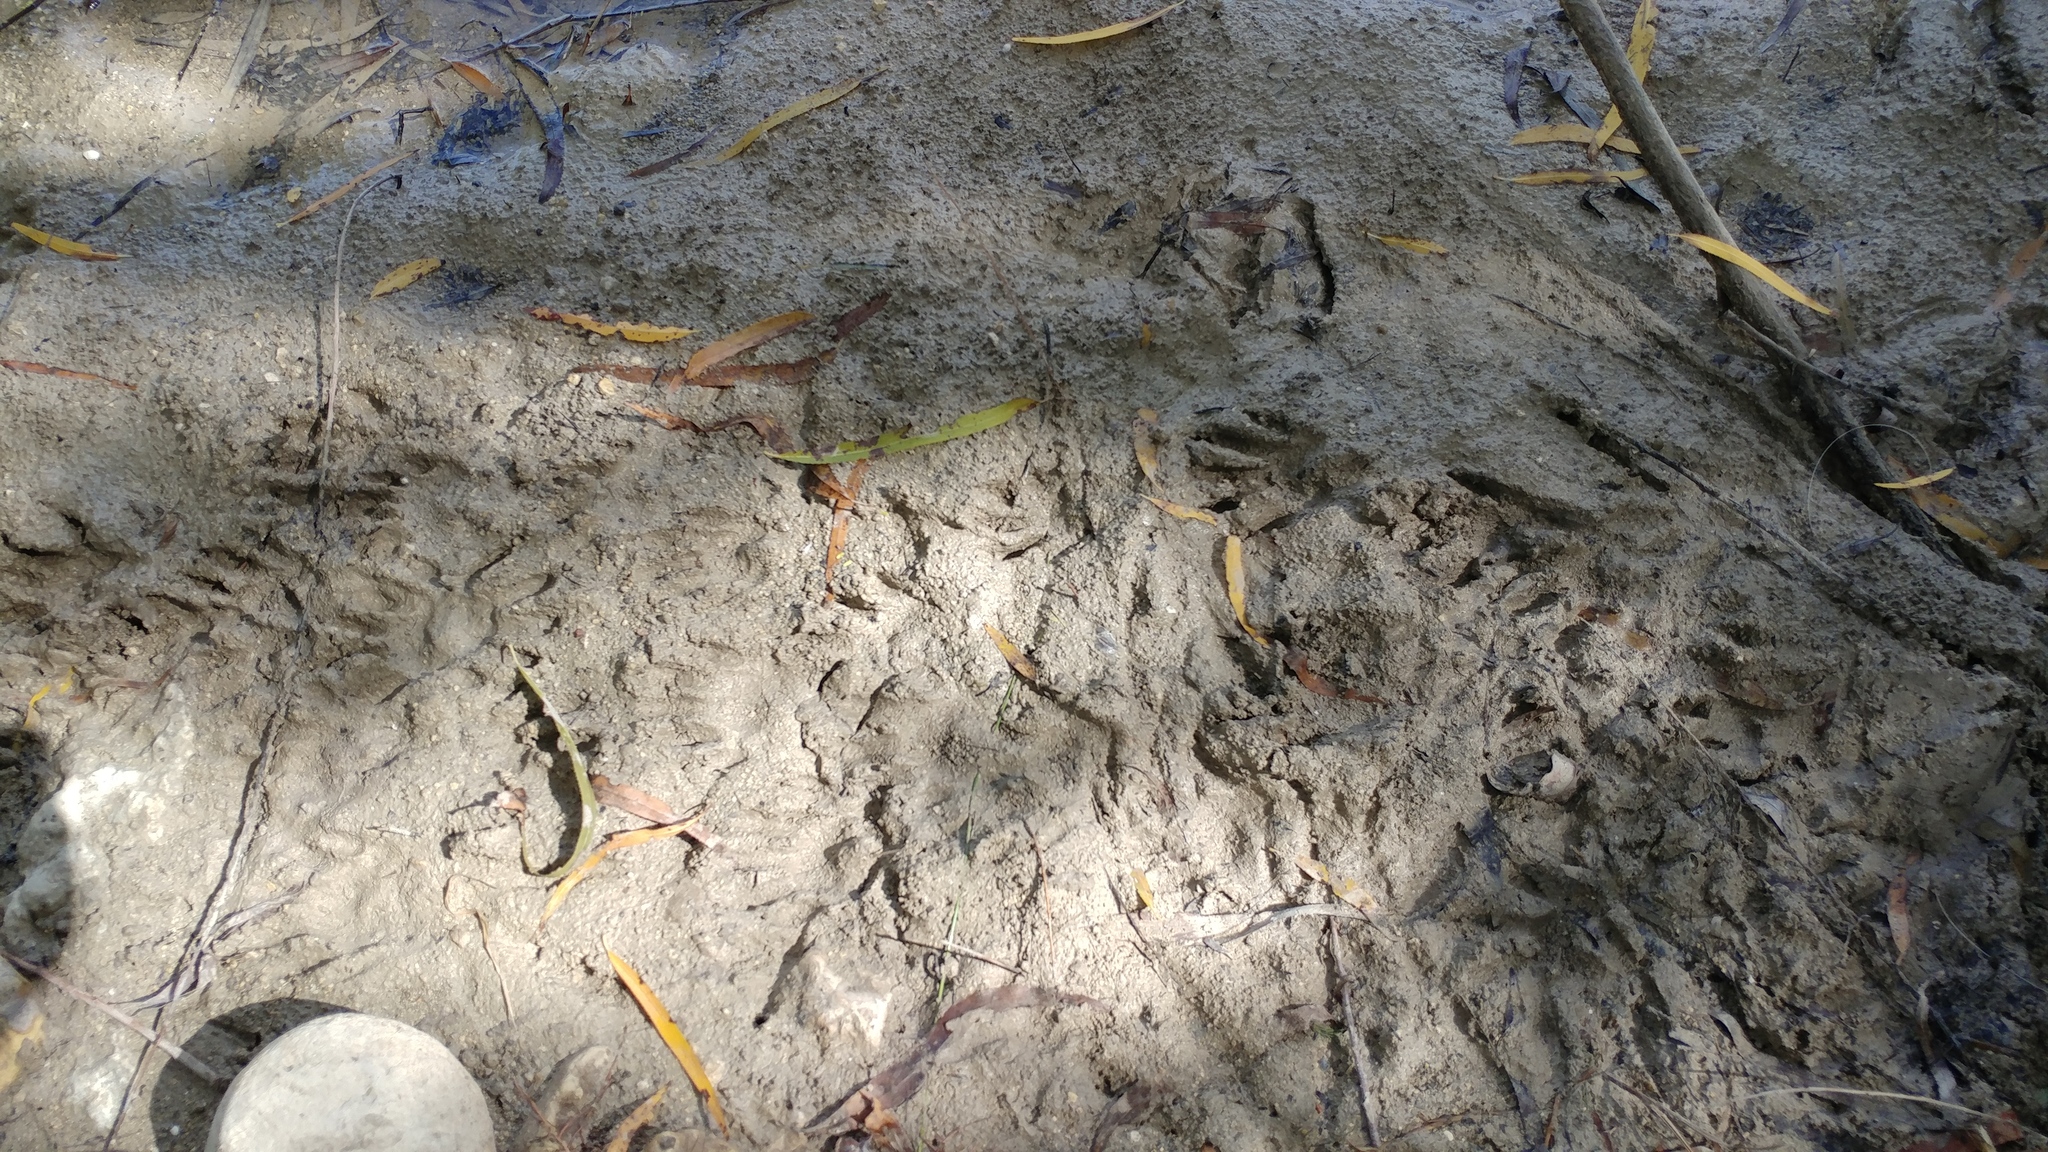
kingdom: Animalia
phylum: Chordata
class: Mammalia
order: Carnivora
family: Procyonidae
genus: Procyon
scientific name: Procyon lotor
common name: Raccoon
